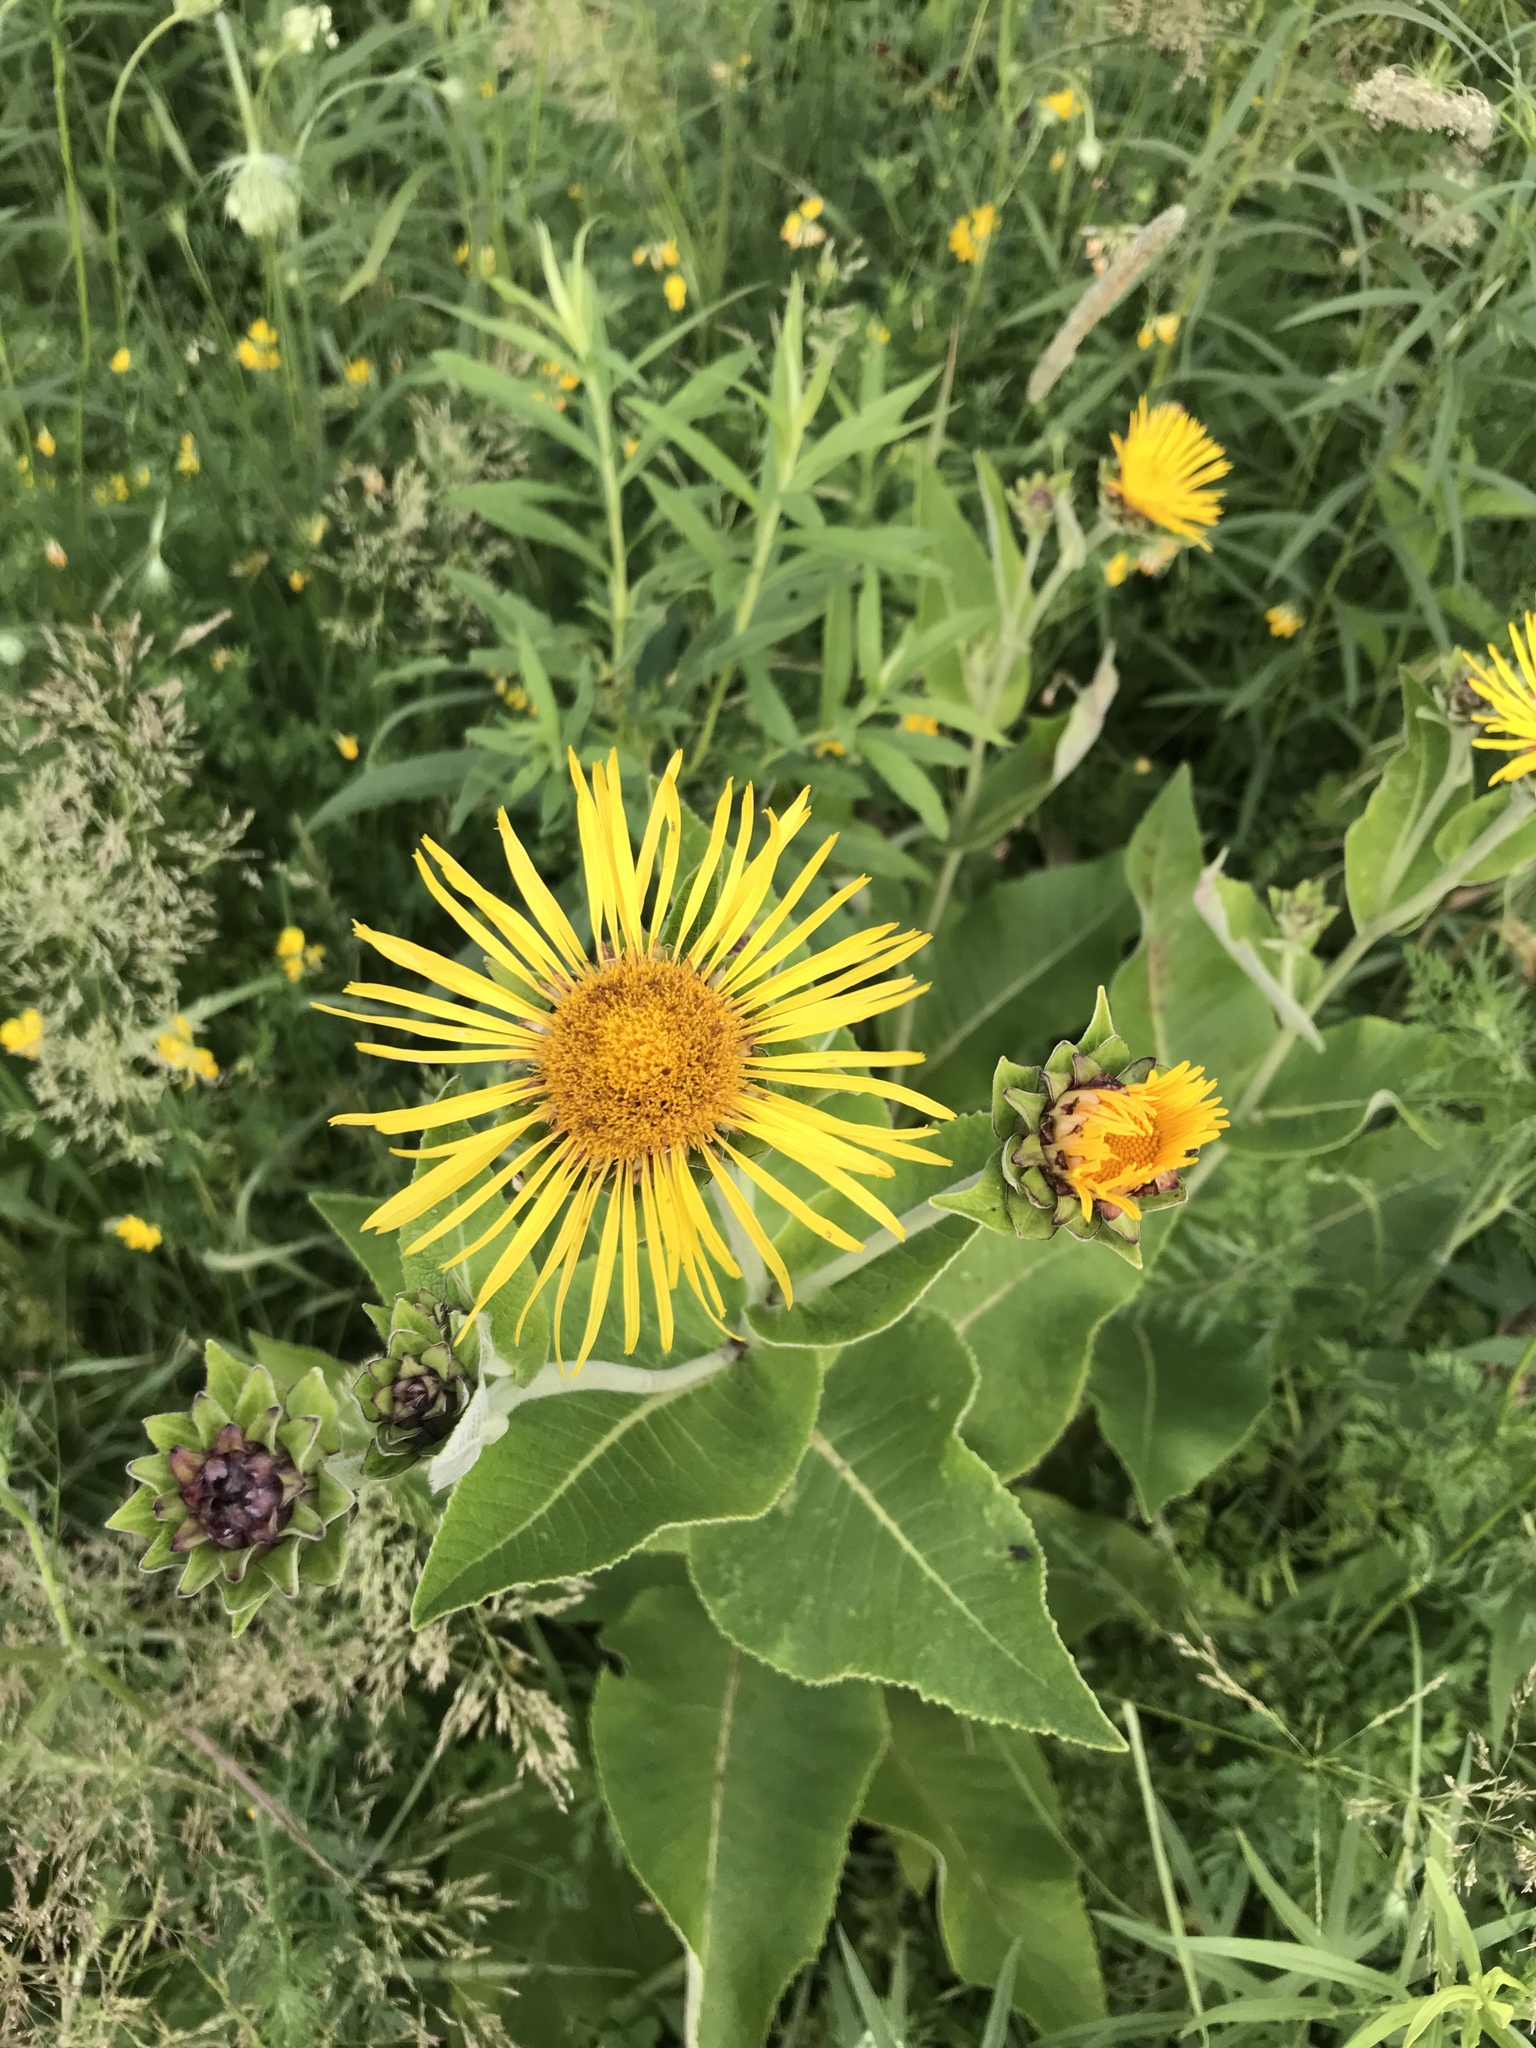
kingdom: Plantae
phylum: Tracheophyta
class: Magnoliopsida
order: Asterales
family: Asteraceae
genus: Inula
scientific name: Inula helenium
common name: Elecampane
